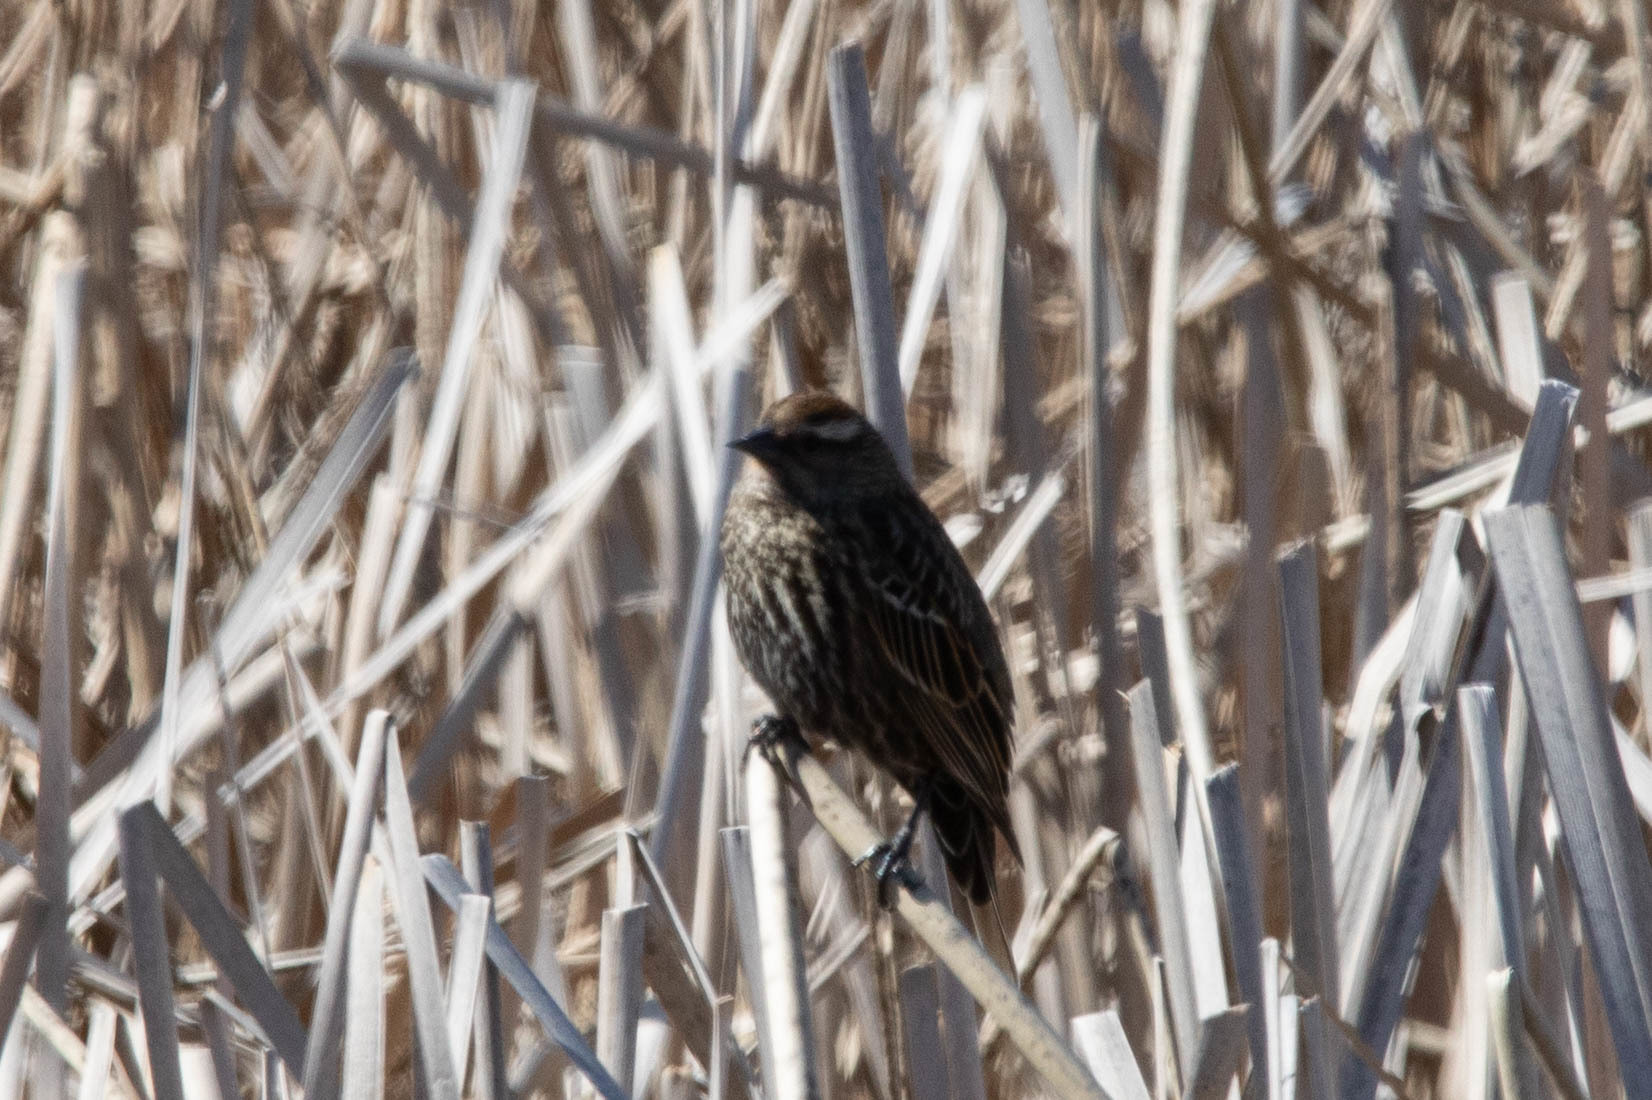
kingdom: Animalia
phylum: Chordata
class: Aves
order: Passeriformes
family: Icteridae
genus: Agelaius
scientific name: Agelaius phoeniceus
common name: Red-winged blackbird
